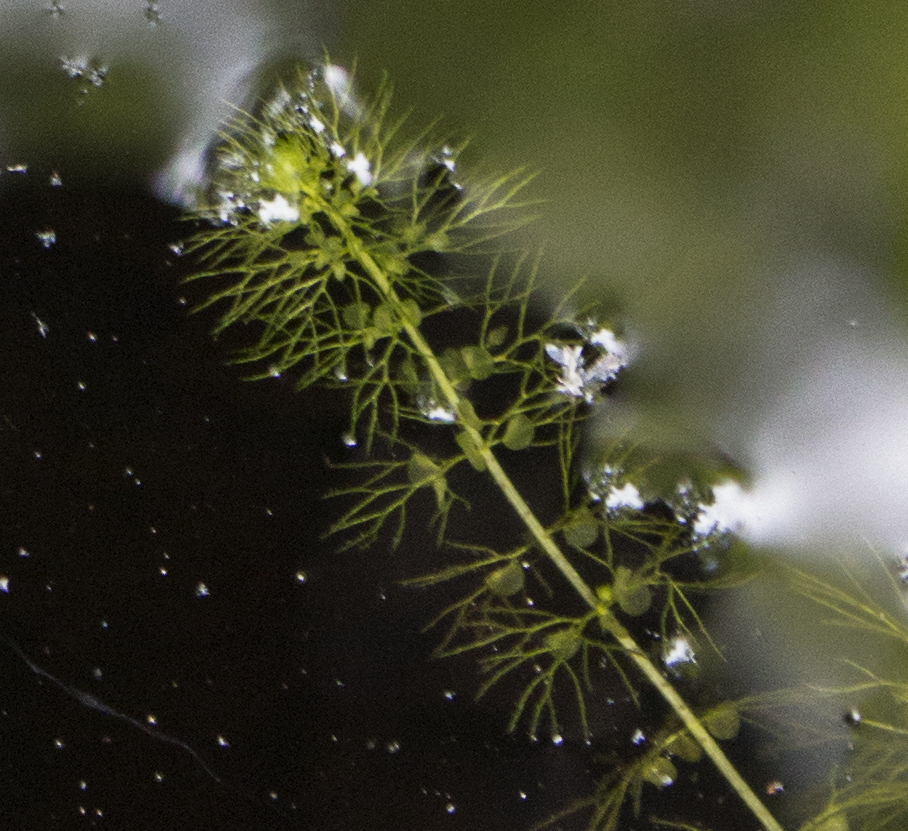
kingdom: Plantae
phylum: Tracheophyta
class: Magnoliopsida
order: Lamiales
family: Lentibulariaceae
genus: Utricularia
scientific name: Utricularia macrorhiza
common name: Common bladderwort
